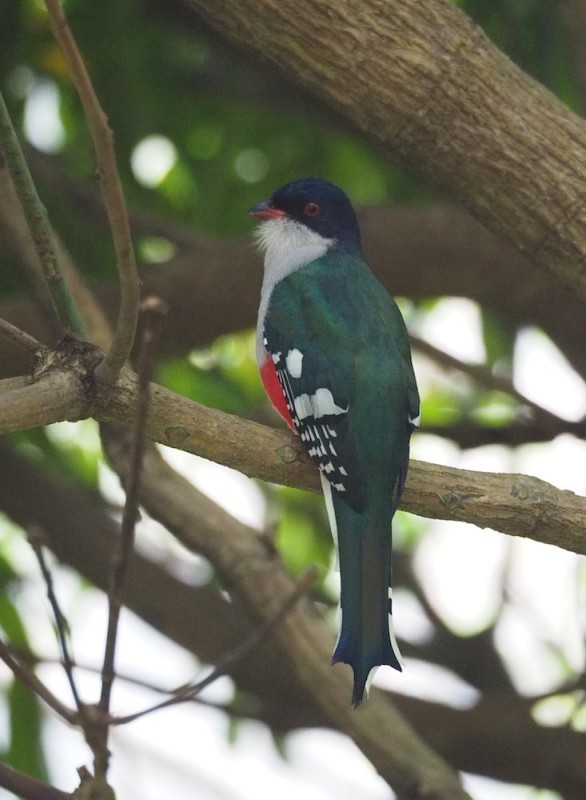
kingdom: Animalia
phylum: Chordata
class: Aves
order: Trogoniformes
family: Trogonidae
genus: Priotelus
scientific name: Priotelus temnurus
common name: Cuban trogon
